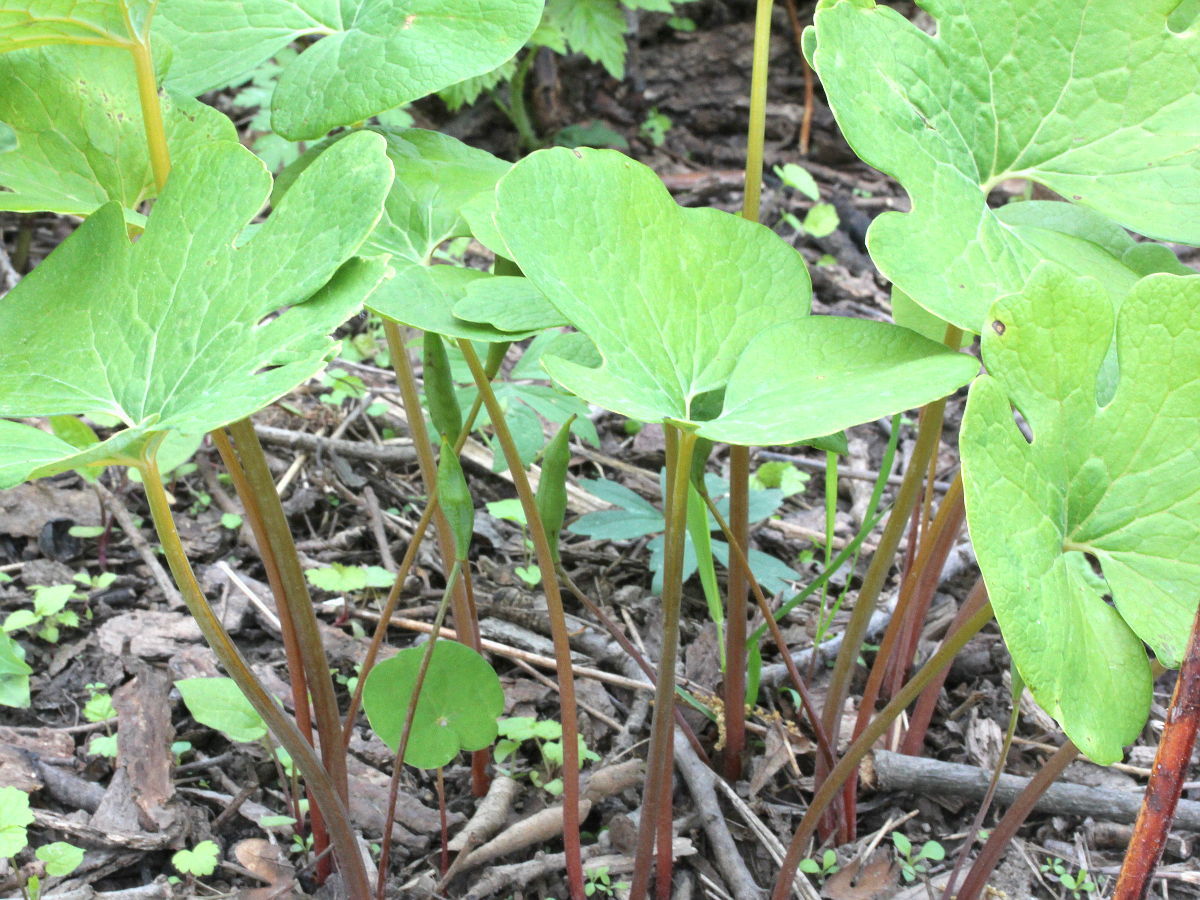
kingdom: Plantae
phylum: Tracheophyta
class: Magnoliopsida
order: Ranunculales
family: Papaveraceae
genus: Sanguinaria
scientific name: Sanguinaria canadensis
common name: Bloodroot
